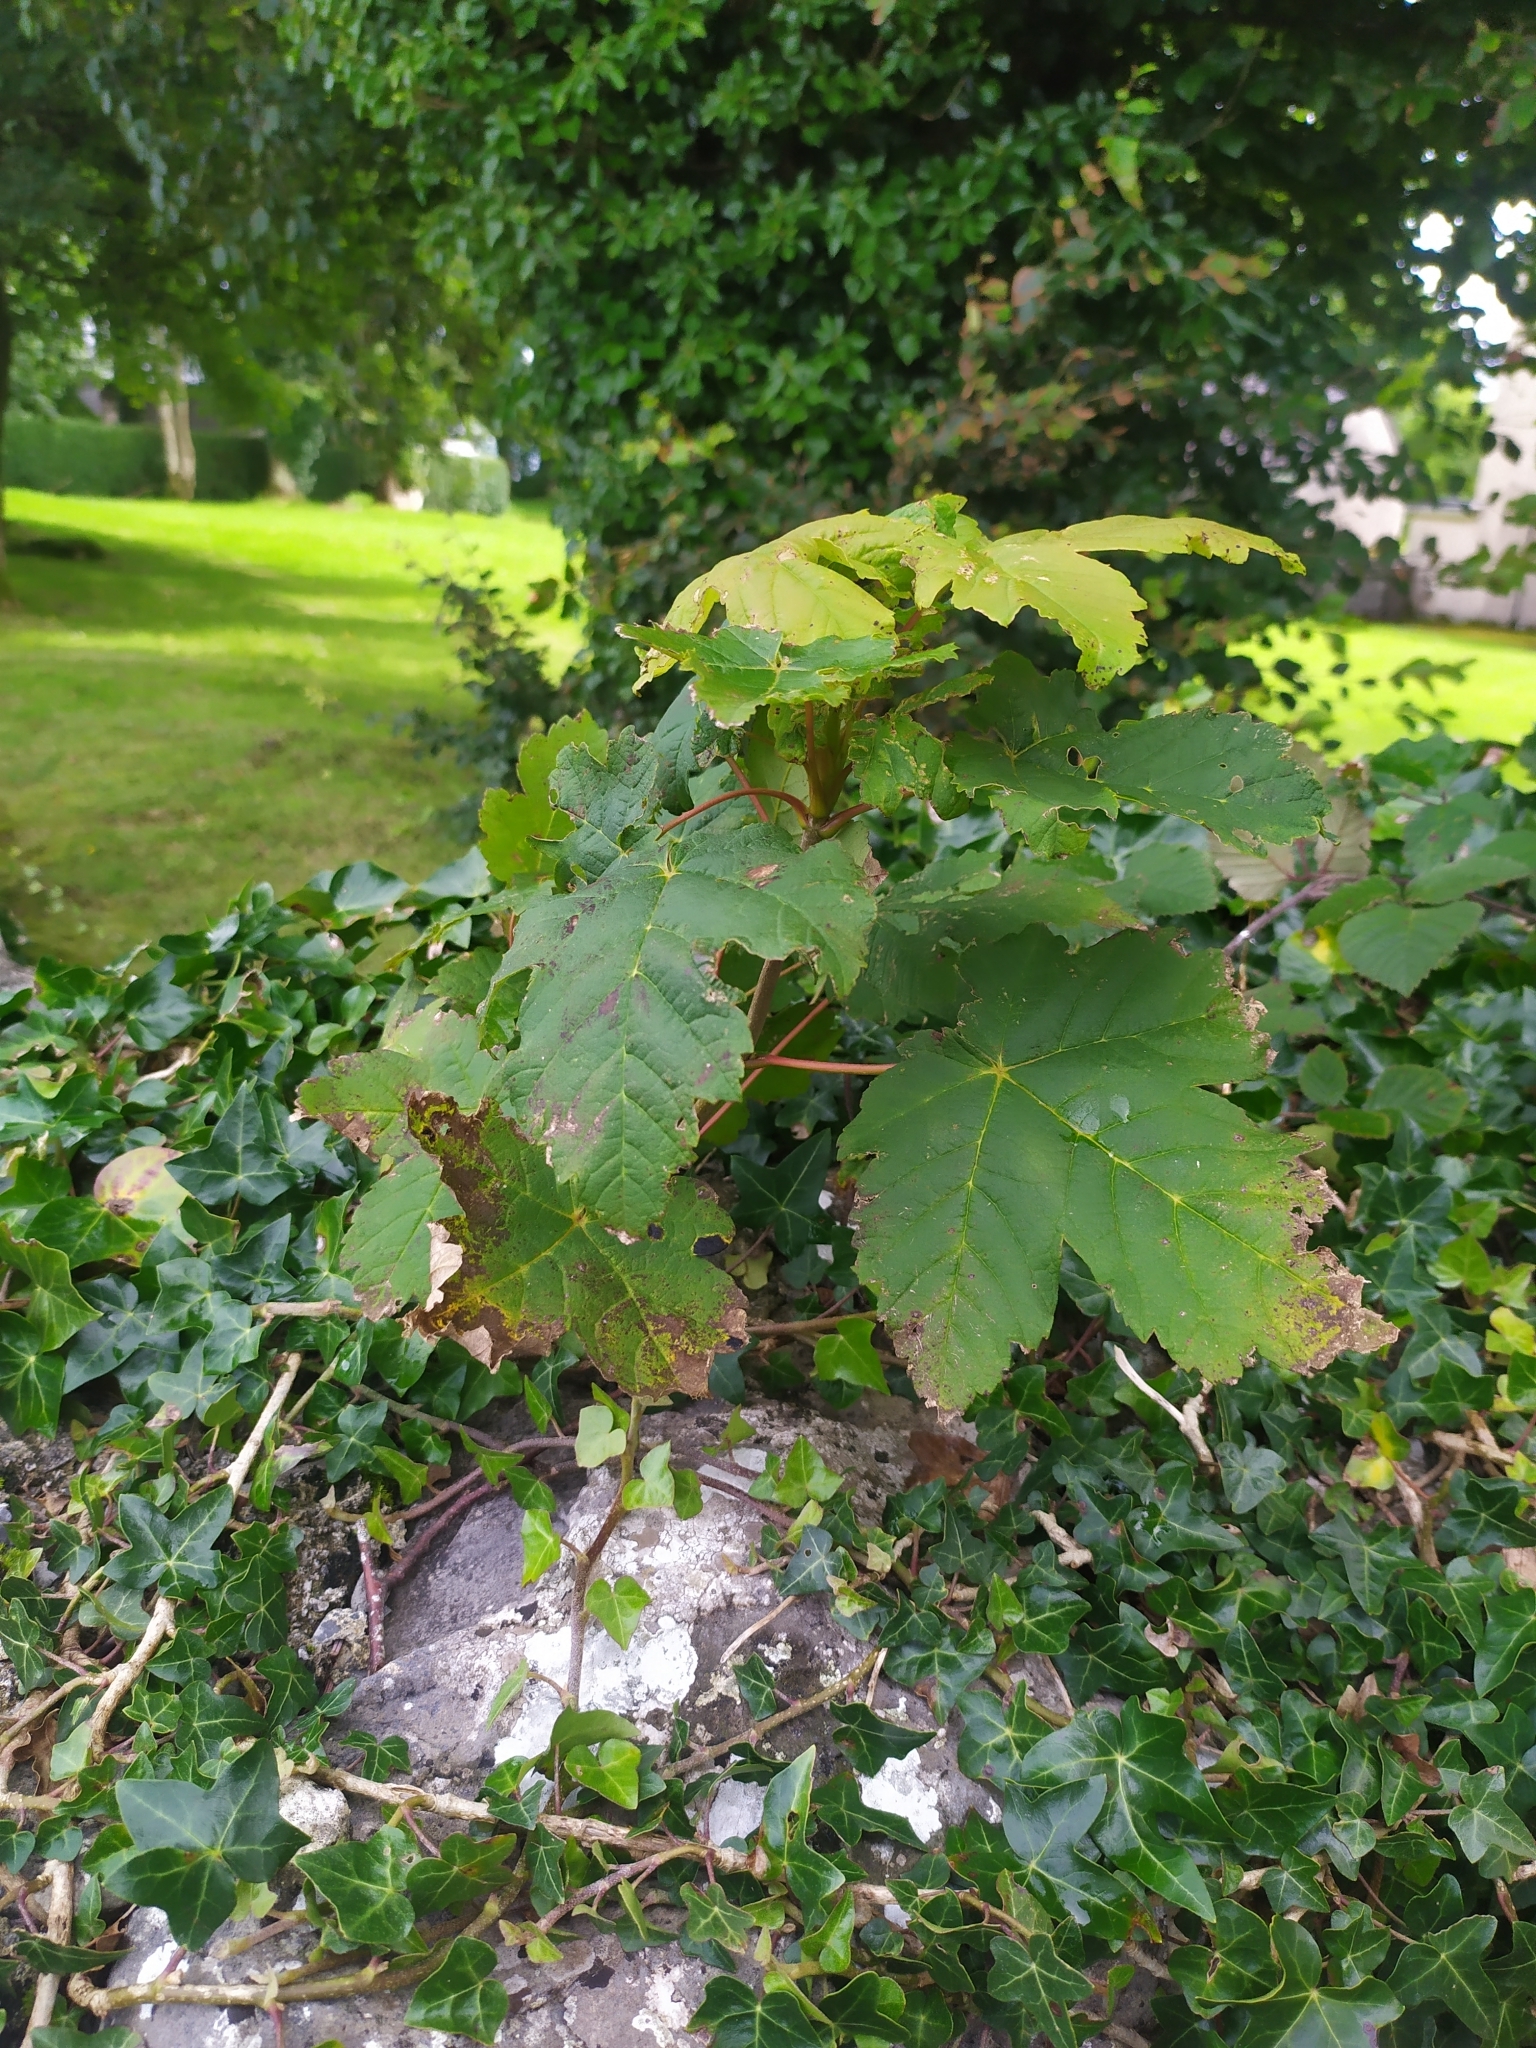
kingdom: Plantae
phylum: Tracheophyta
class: Magnoliopsida
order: Sapindales
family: Sapindaceae
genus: Acer
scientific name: Acer pseudoplatanus
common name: Sycamore
